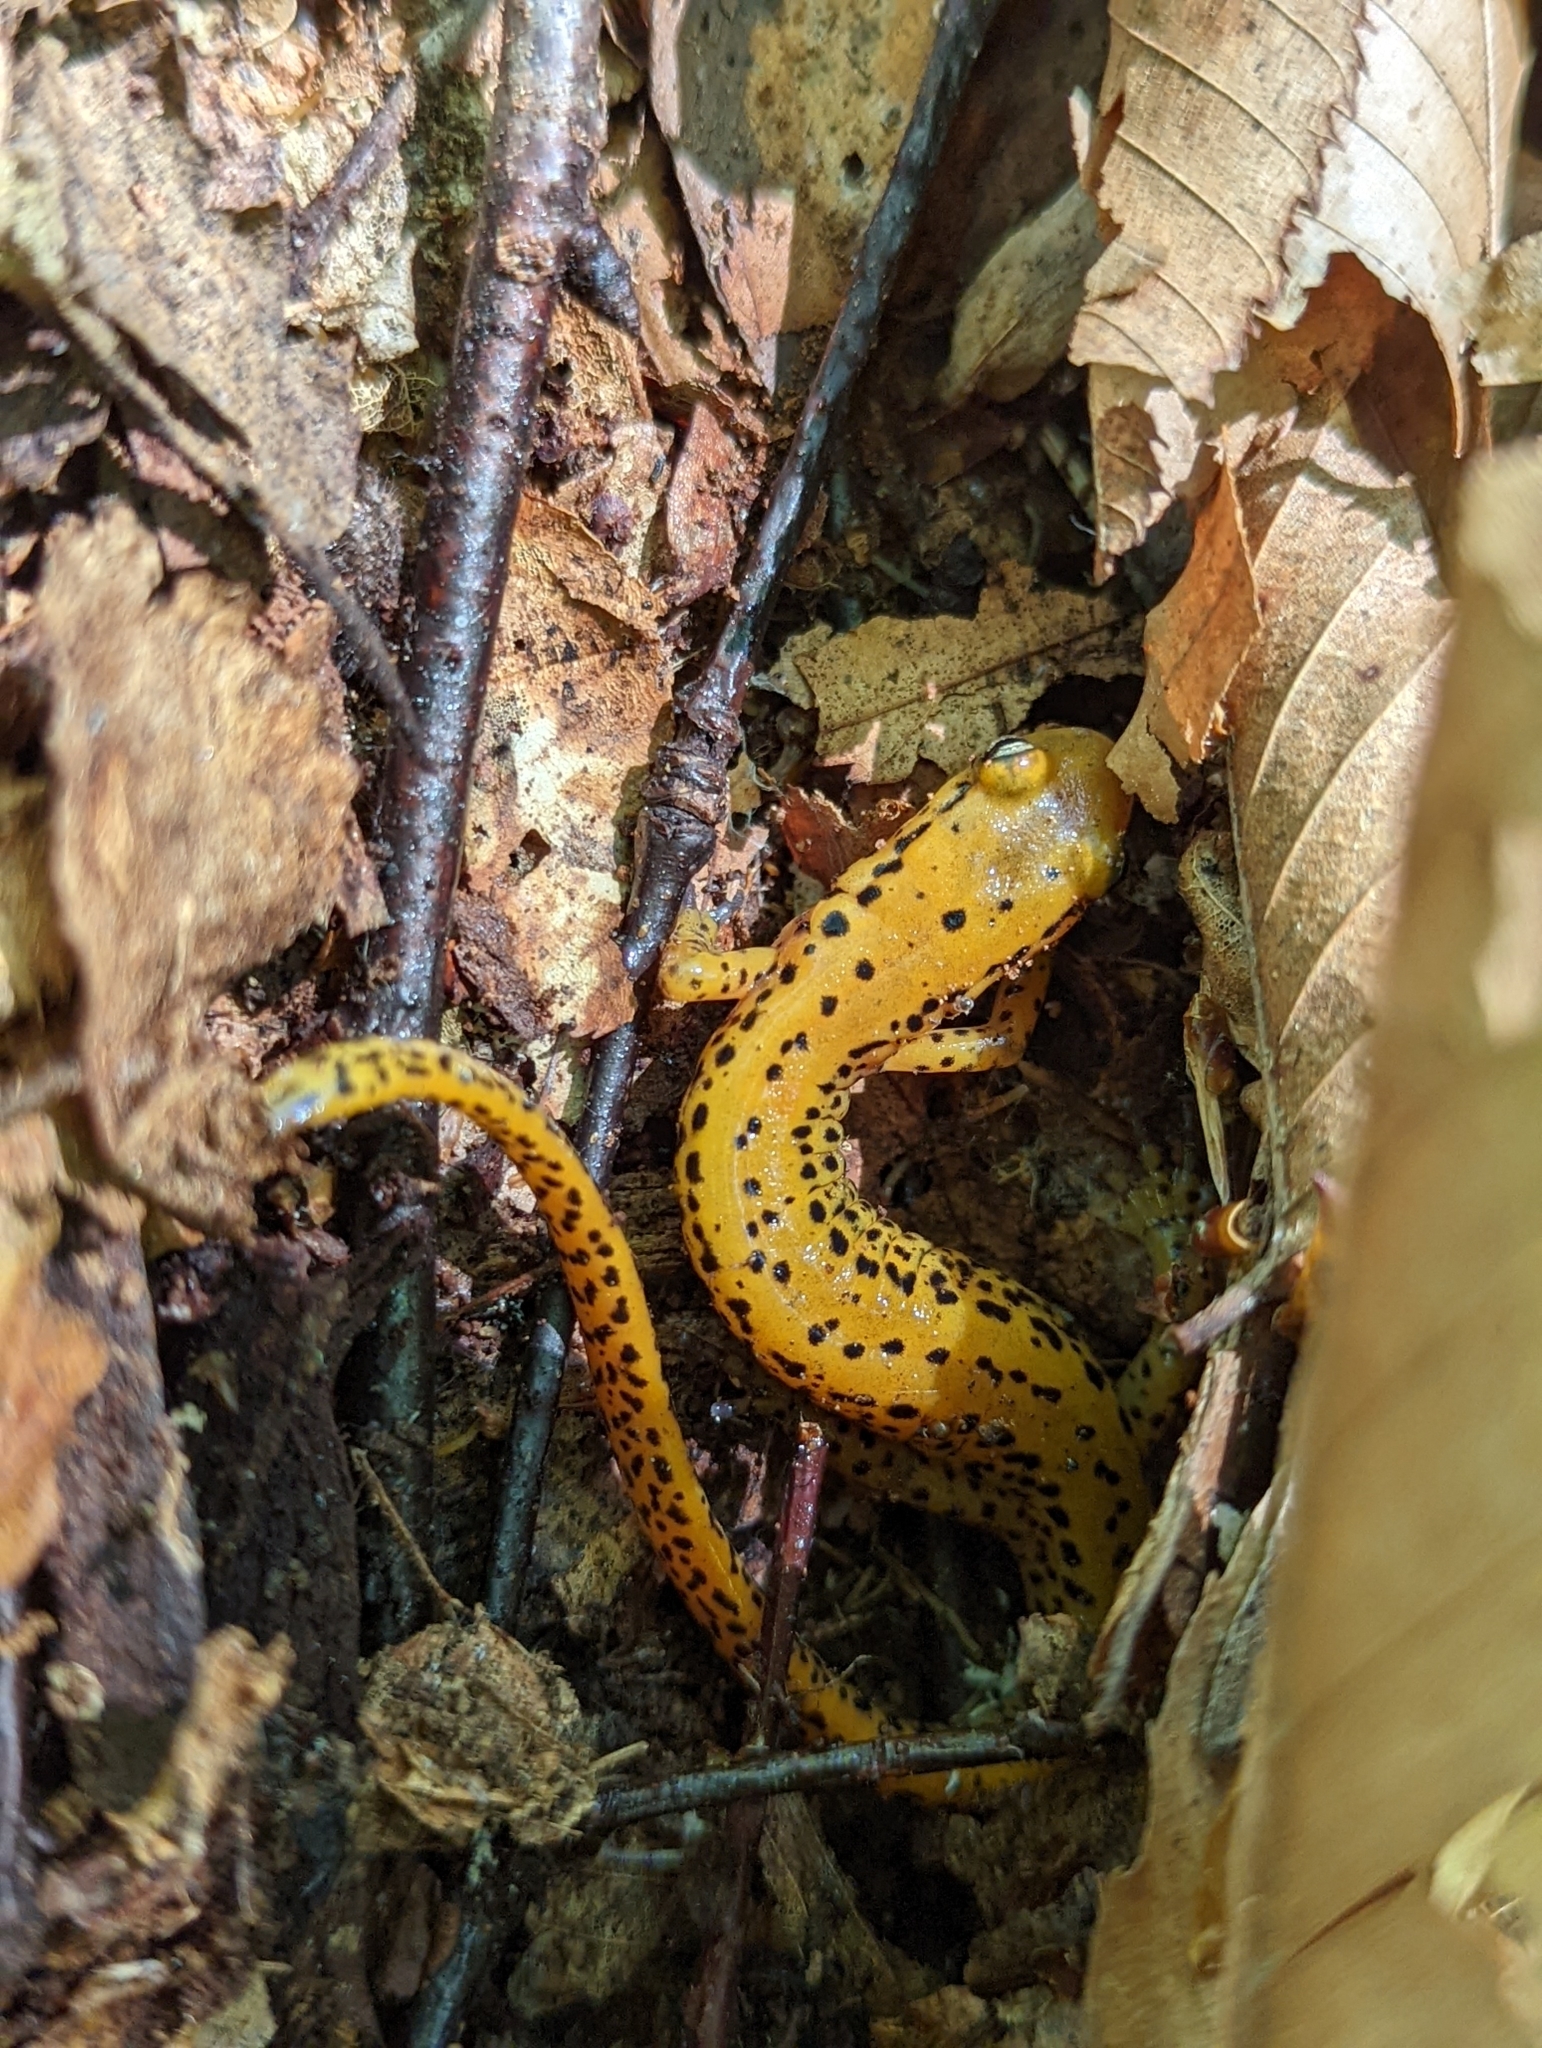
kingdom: Animalia
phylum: Chordata
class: Amphibia
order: Caudata
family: Plethodontidae
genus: Eurycea
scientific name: Eurycea longicauda
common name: Long-tailed salamander
